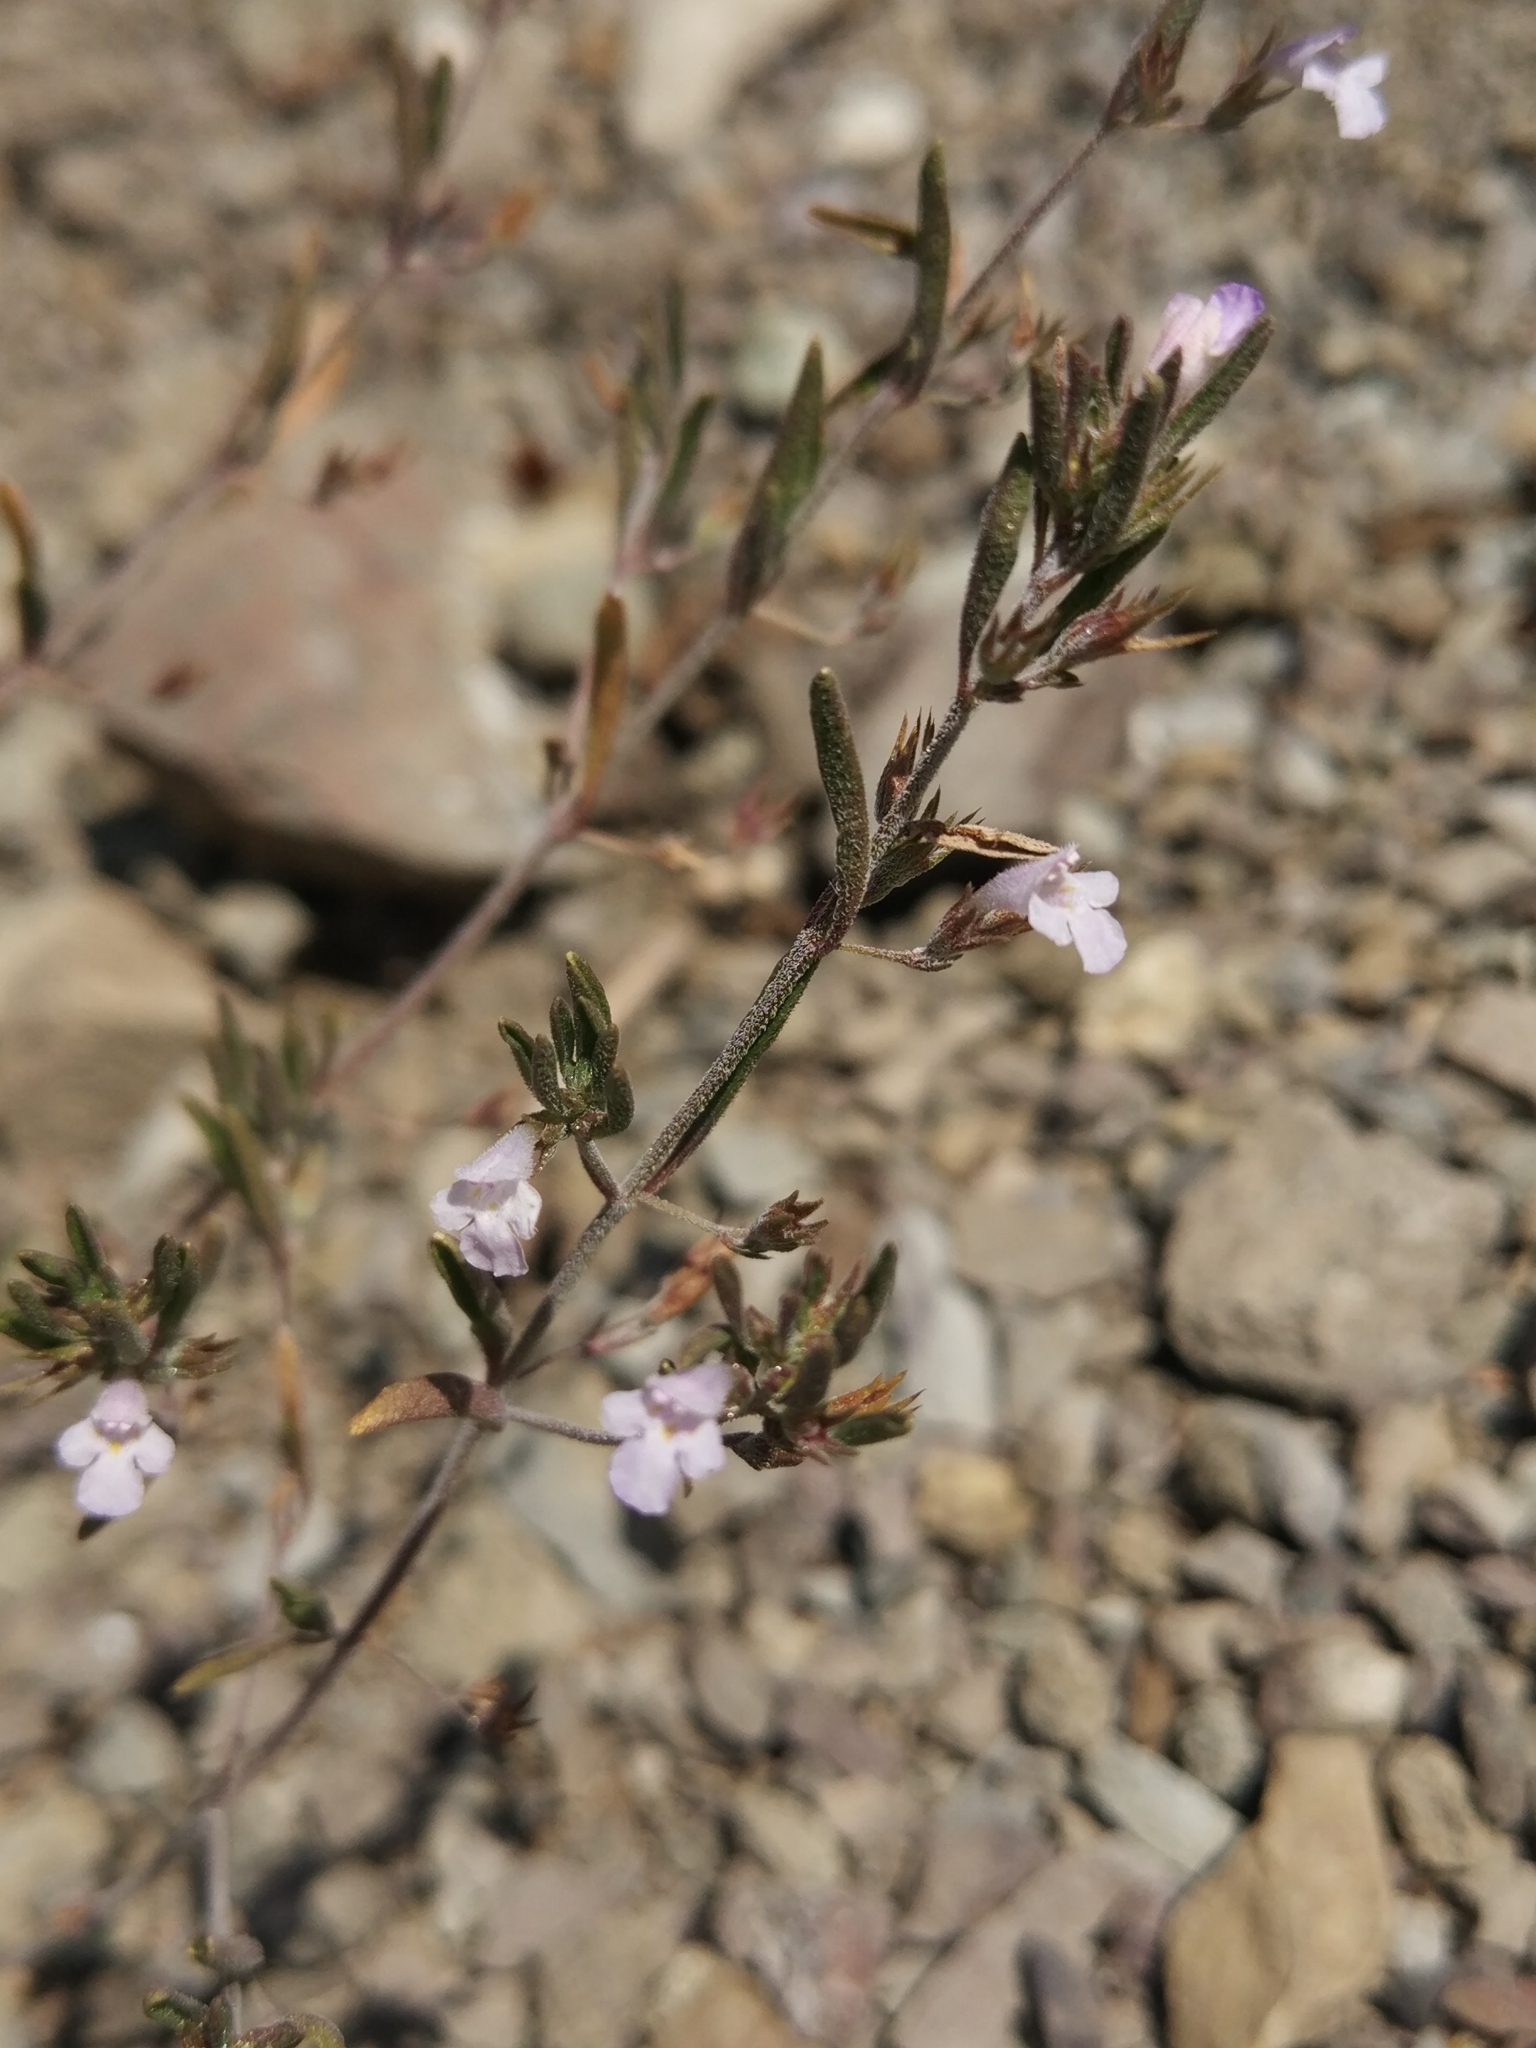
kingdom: Plantae
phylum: Tracheophyta
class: Magnoliopsida
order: Lamiales
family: Lamiaceae
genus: Satureja
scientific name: Satureja hortensis
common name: Summer savory
